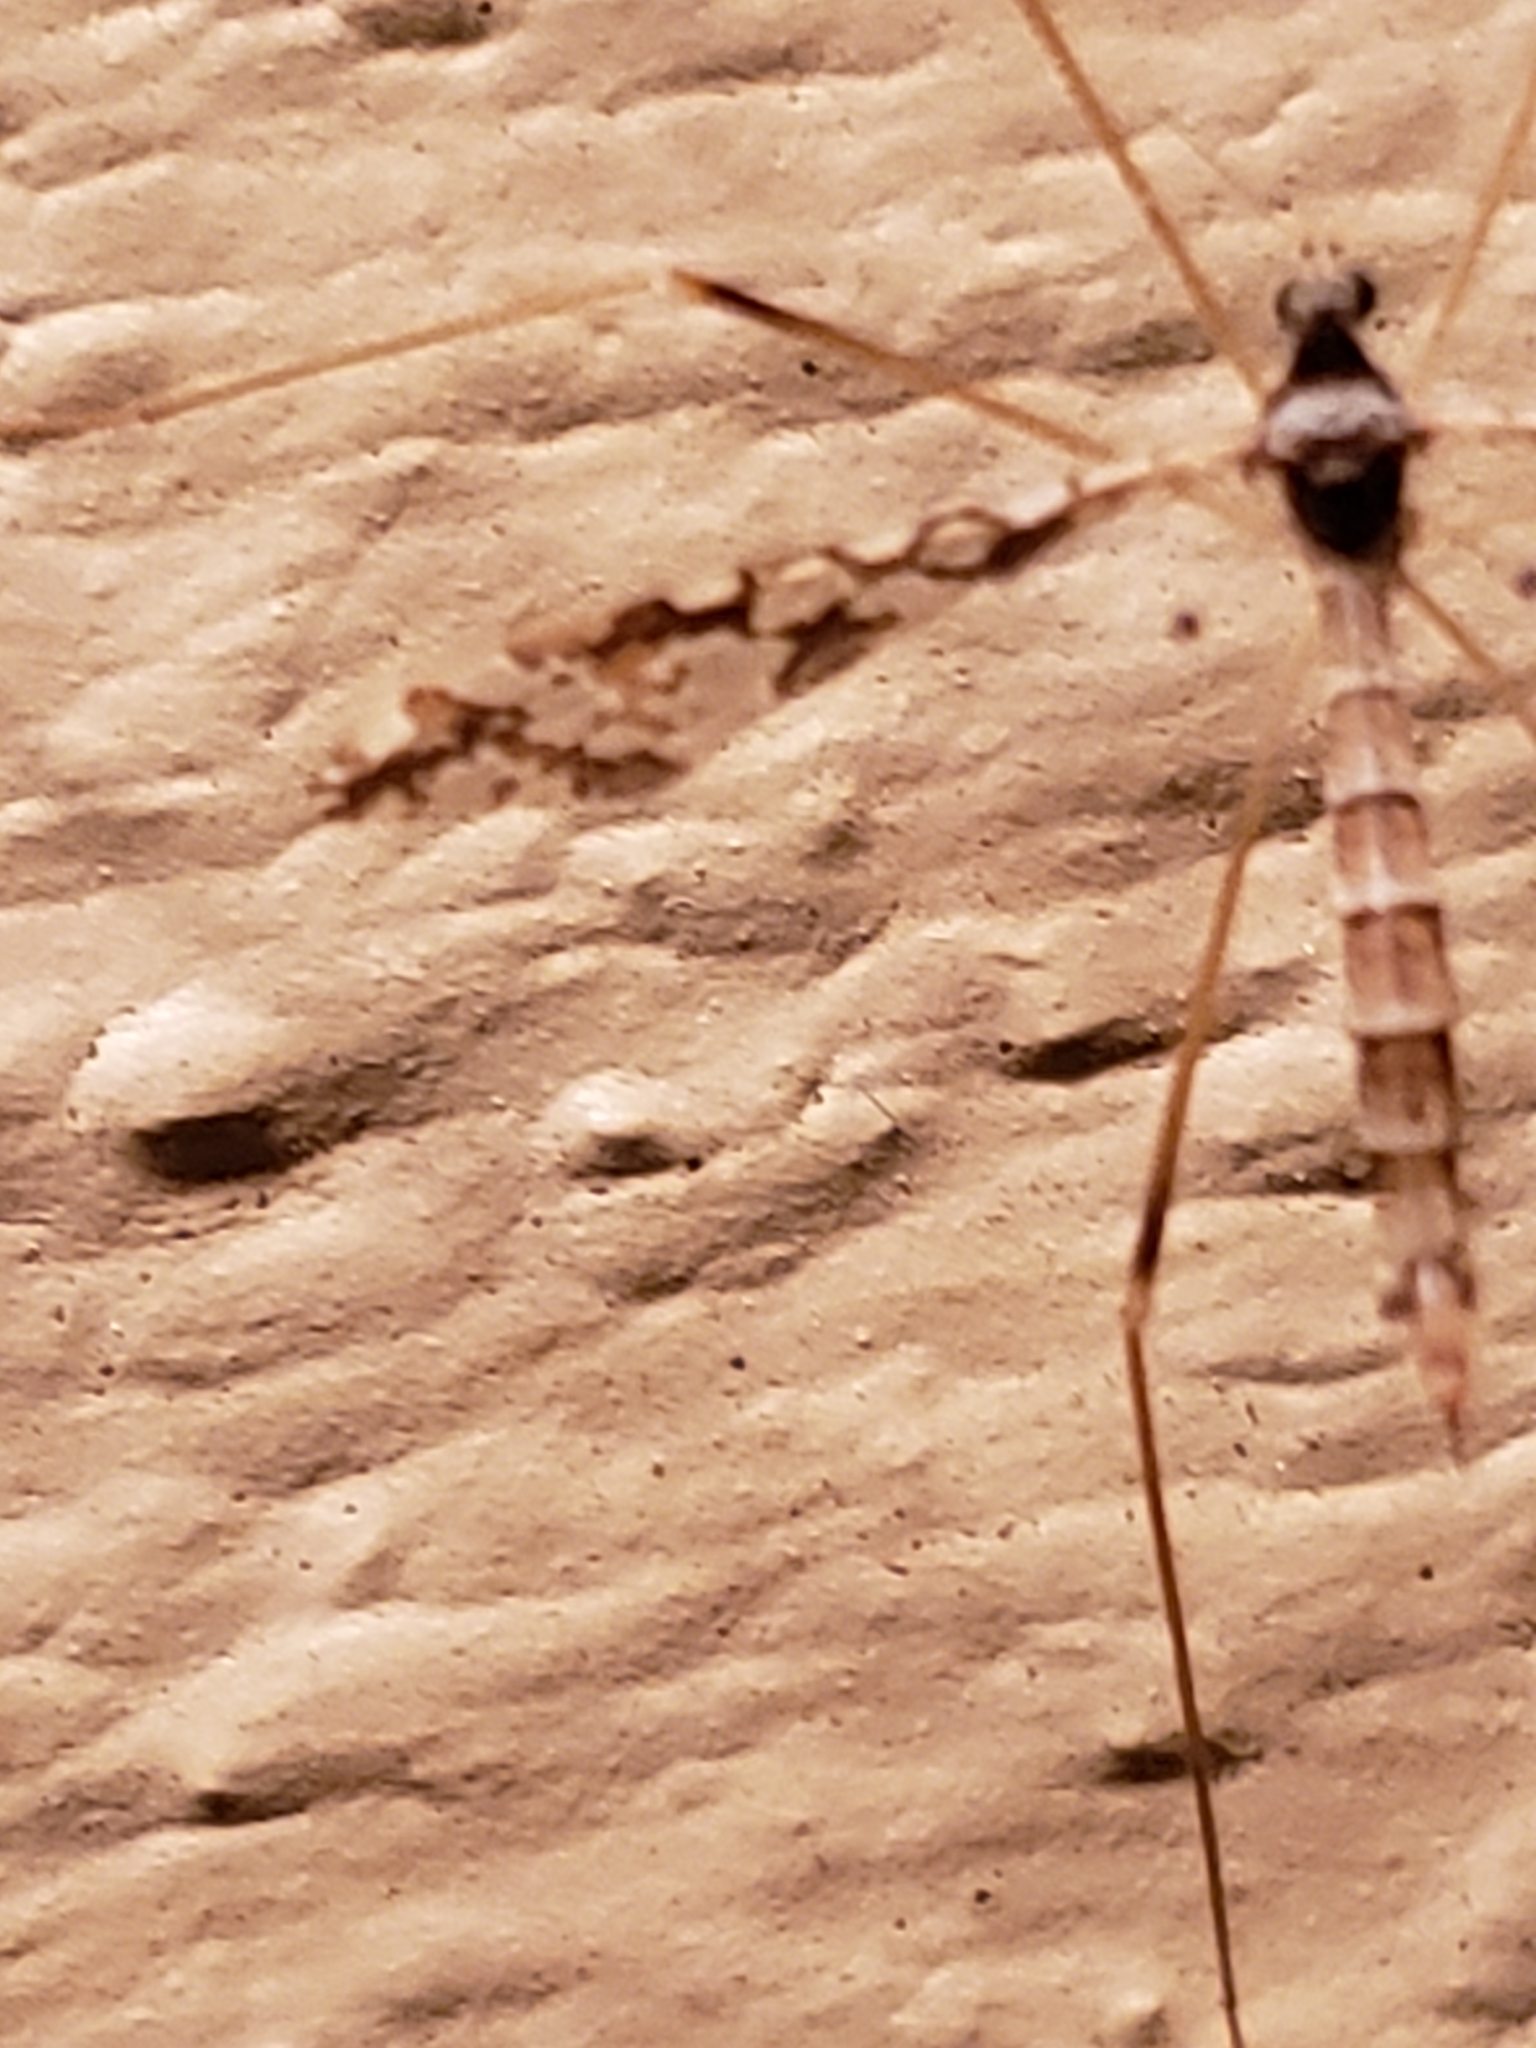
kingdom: Animalia
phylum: Arthropoda
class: Insecta
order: Diptera
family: Limoniidae
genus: Epiphragma
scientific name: Epiphragma solatrix
